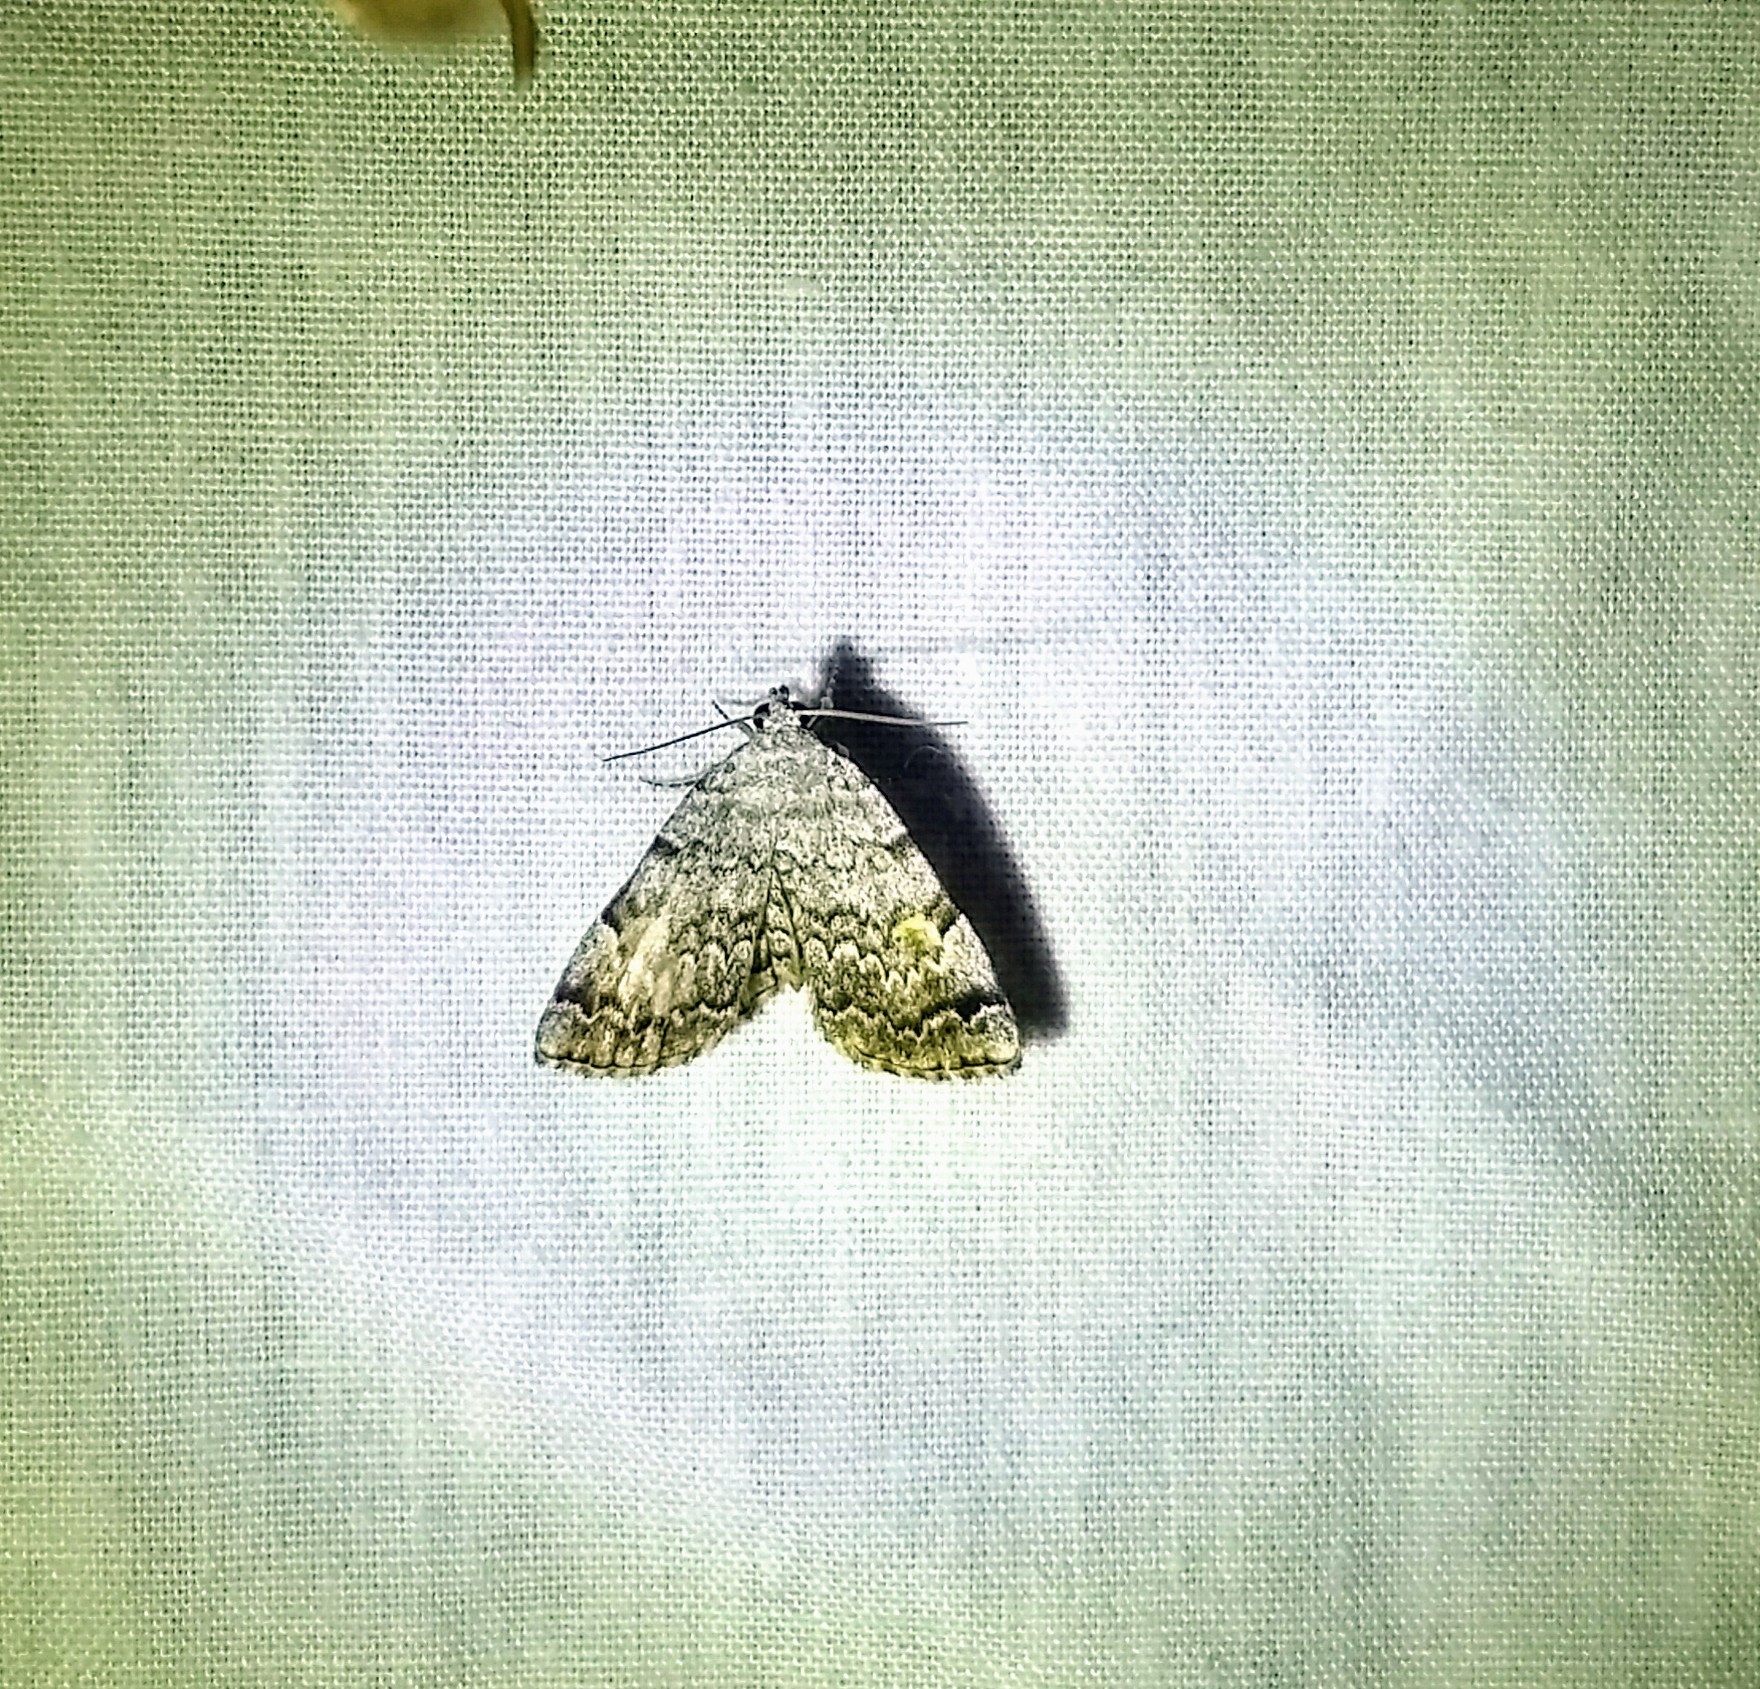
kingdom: Animalia
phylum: Arthropoda
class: Insecta
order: Lepidoptera
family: Erebidae
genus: Idia
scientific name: Idia americalis
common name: American idia moth
